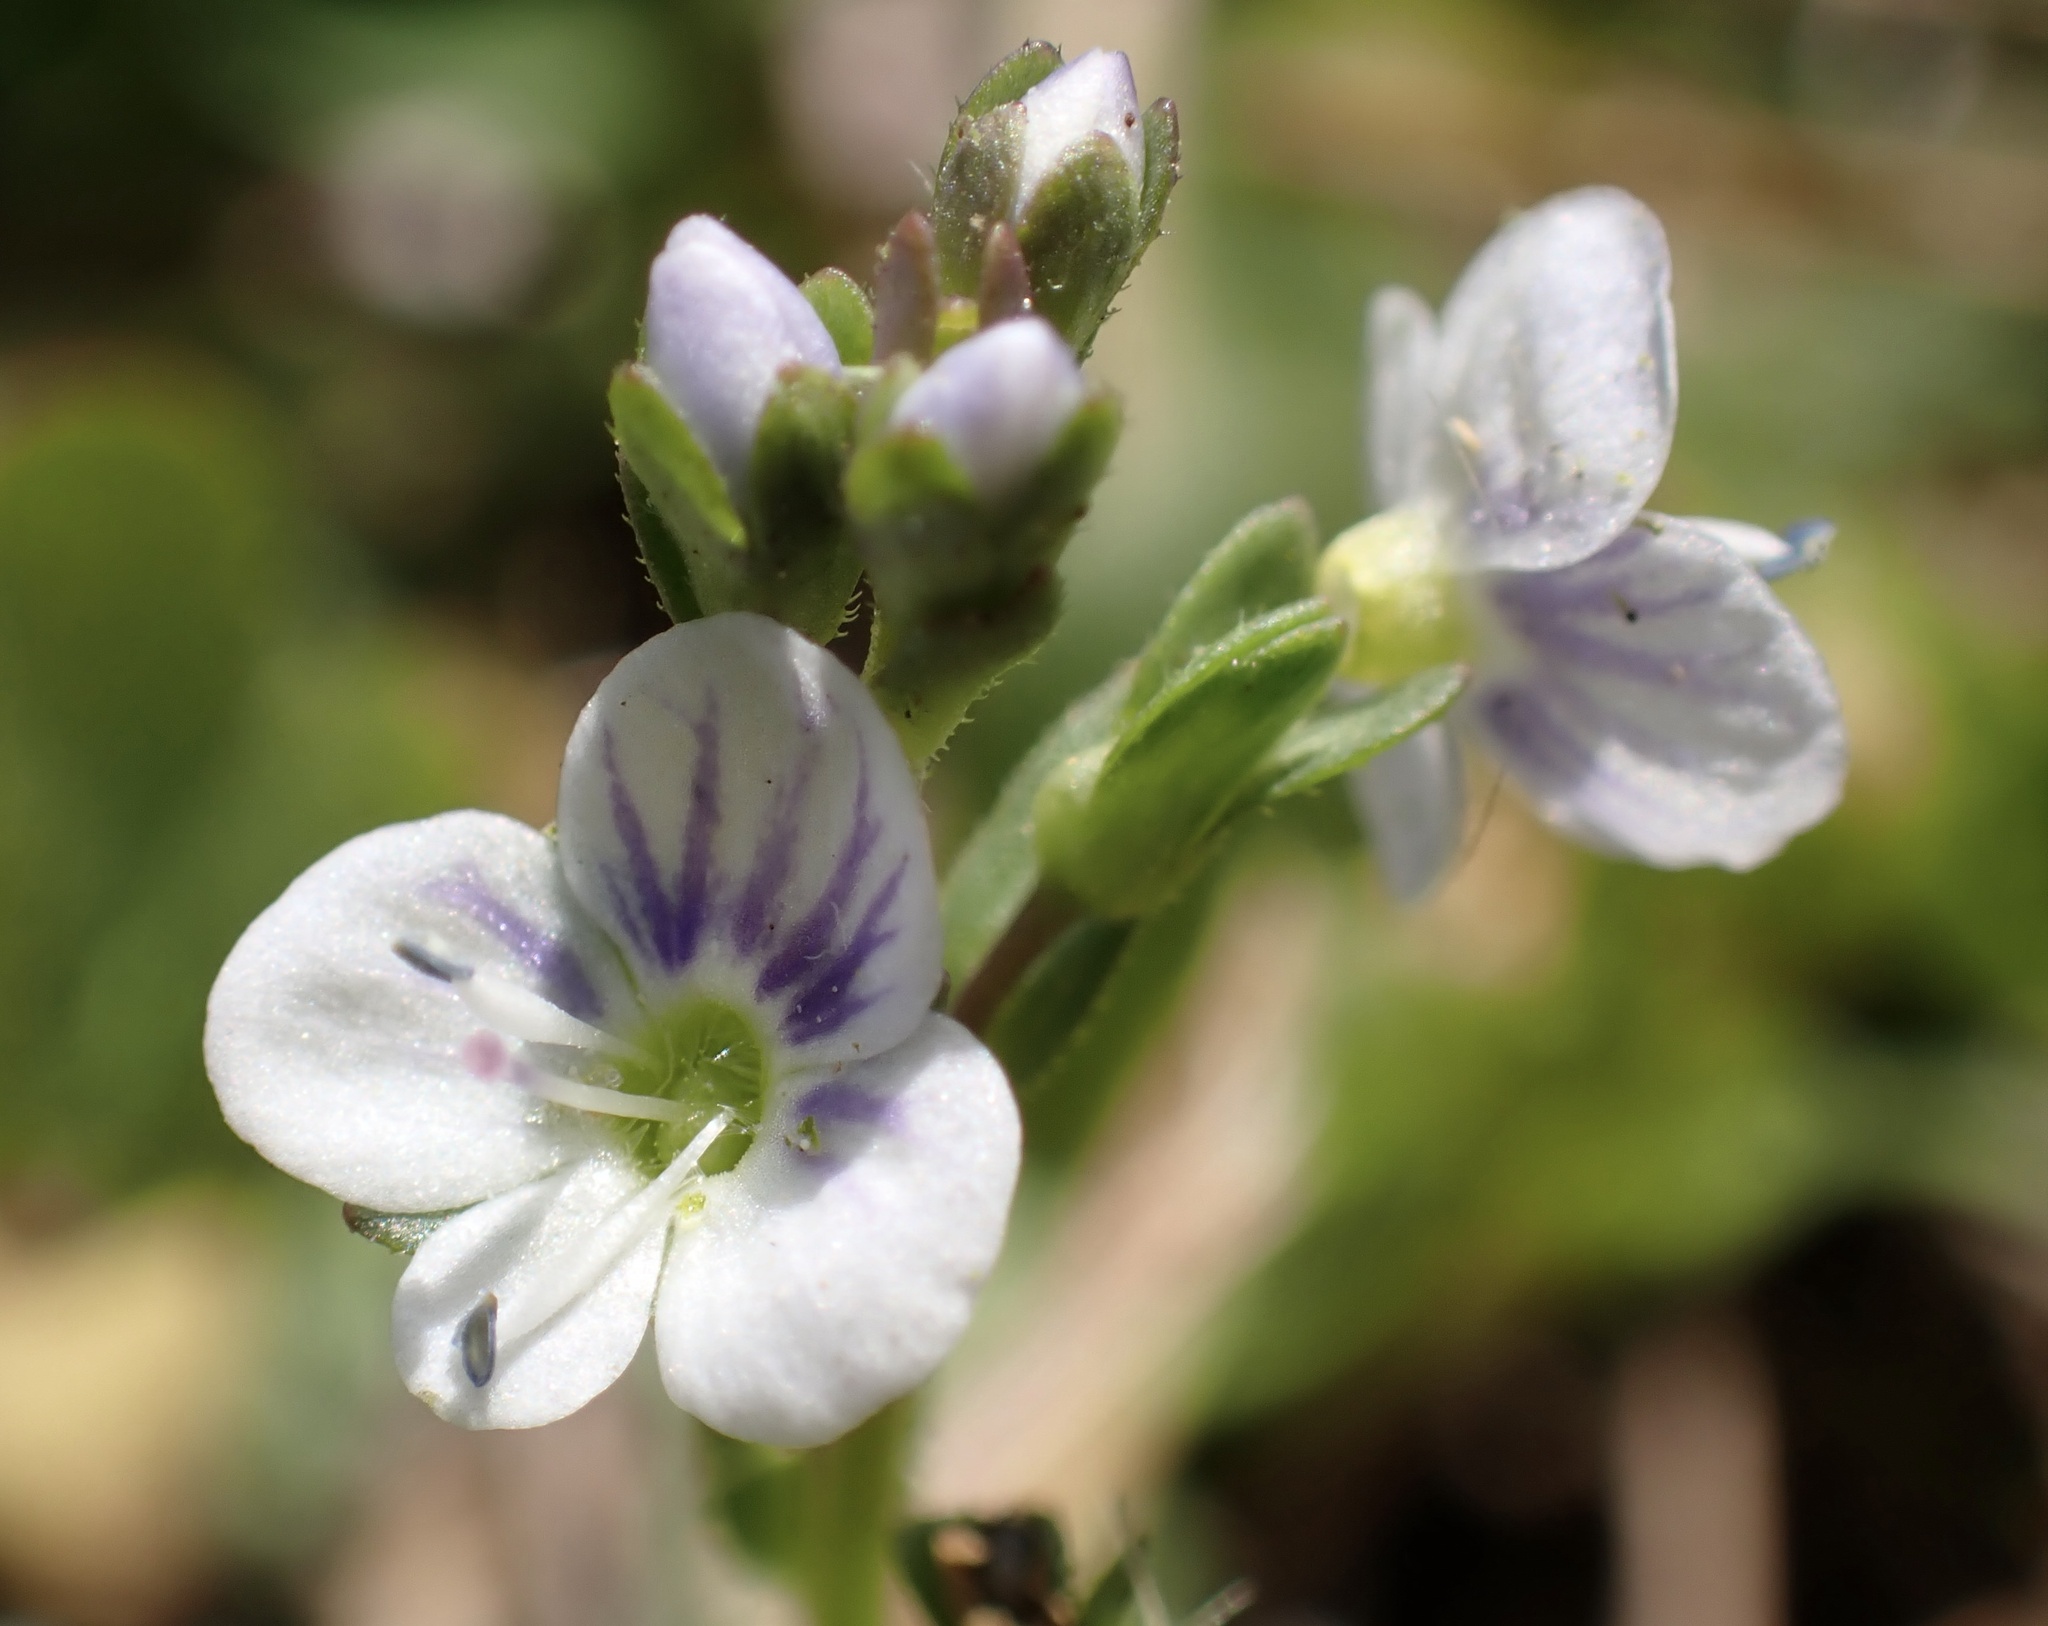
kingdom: Plantae
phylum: Tracheophyta
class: Magnoliopsida
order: Lamiales
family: Plantaginaceae
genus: Veronica
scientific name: Veronica serpyllifolia
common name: Thyme-leaved speedwell
